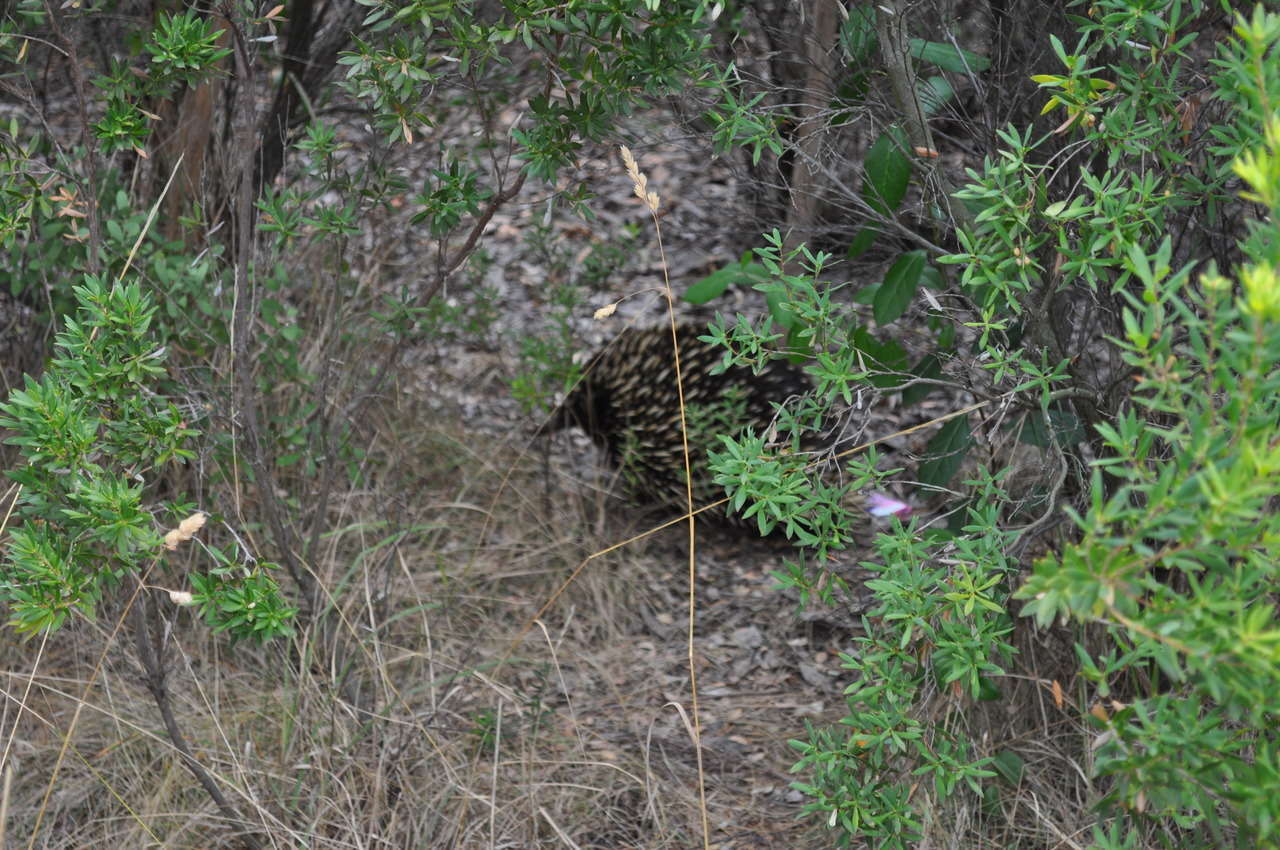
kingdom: Animalia
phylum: Chordata
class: Mammalia
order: Monotremata
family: Tachyglossidae
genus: Tachyglossus
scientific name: Tachyglossus aculeatus
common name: Short-beaked echidna
